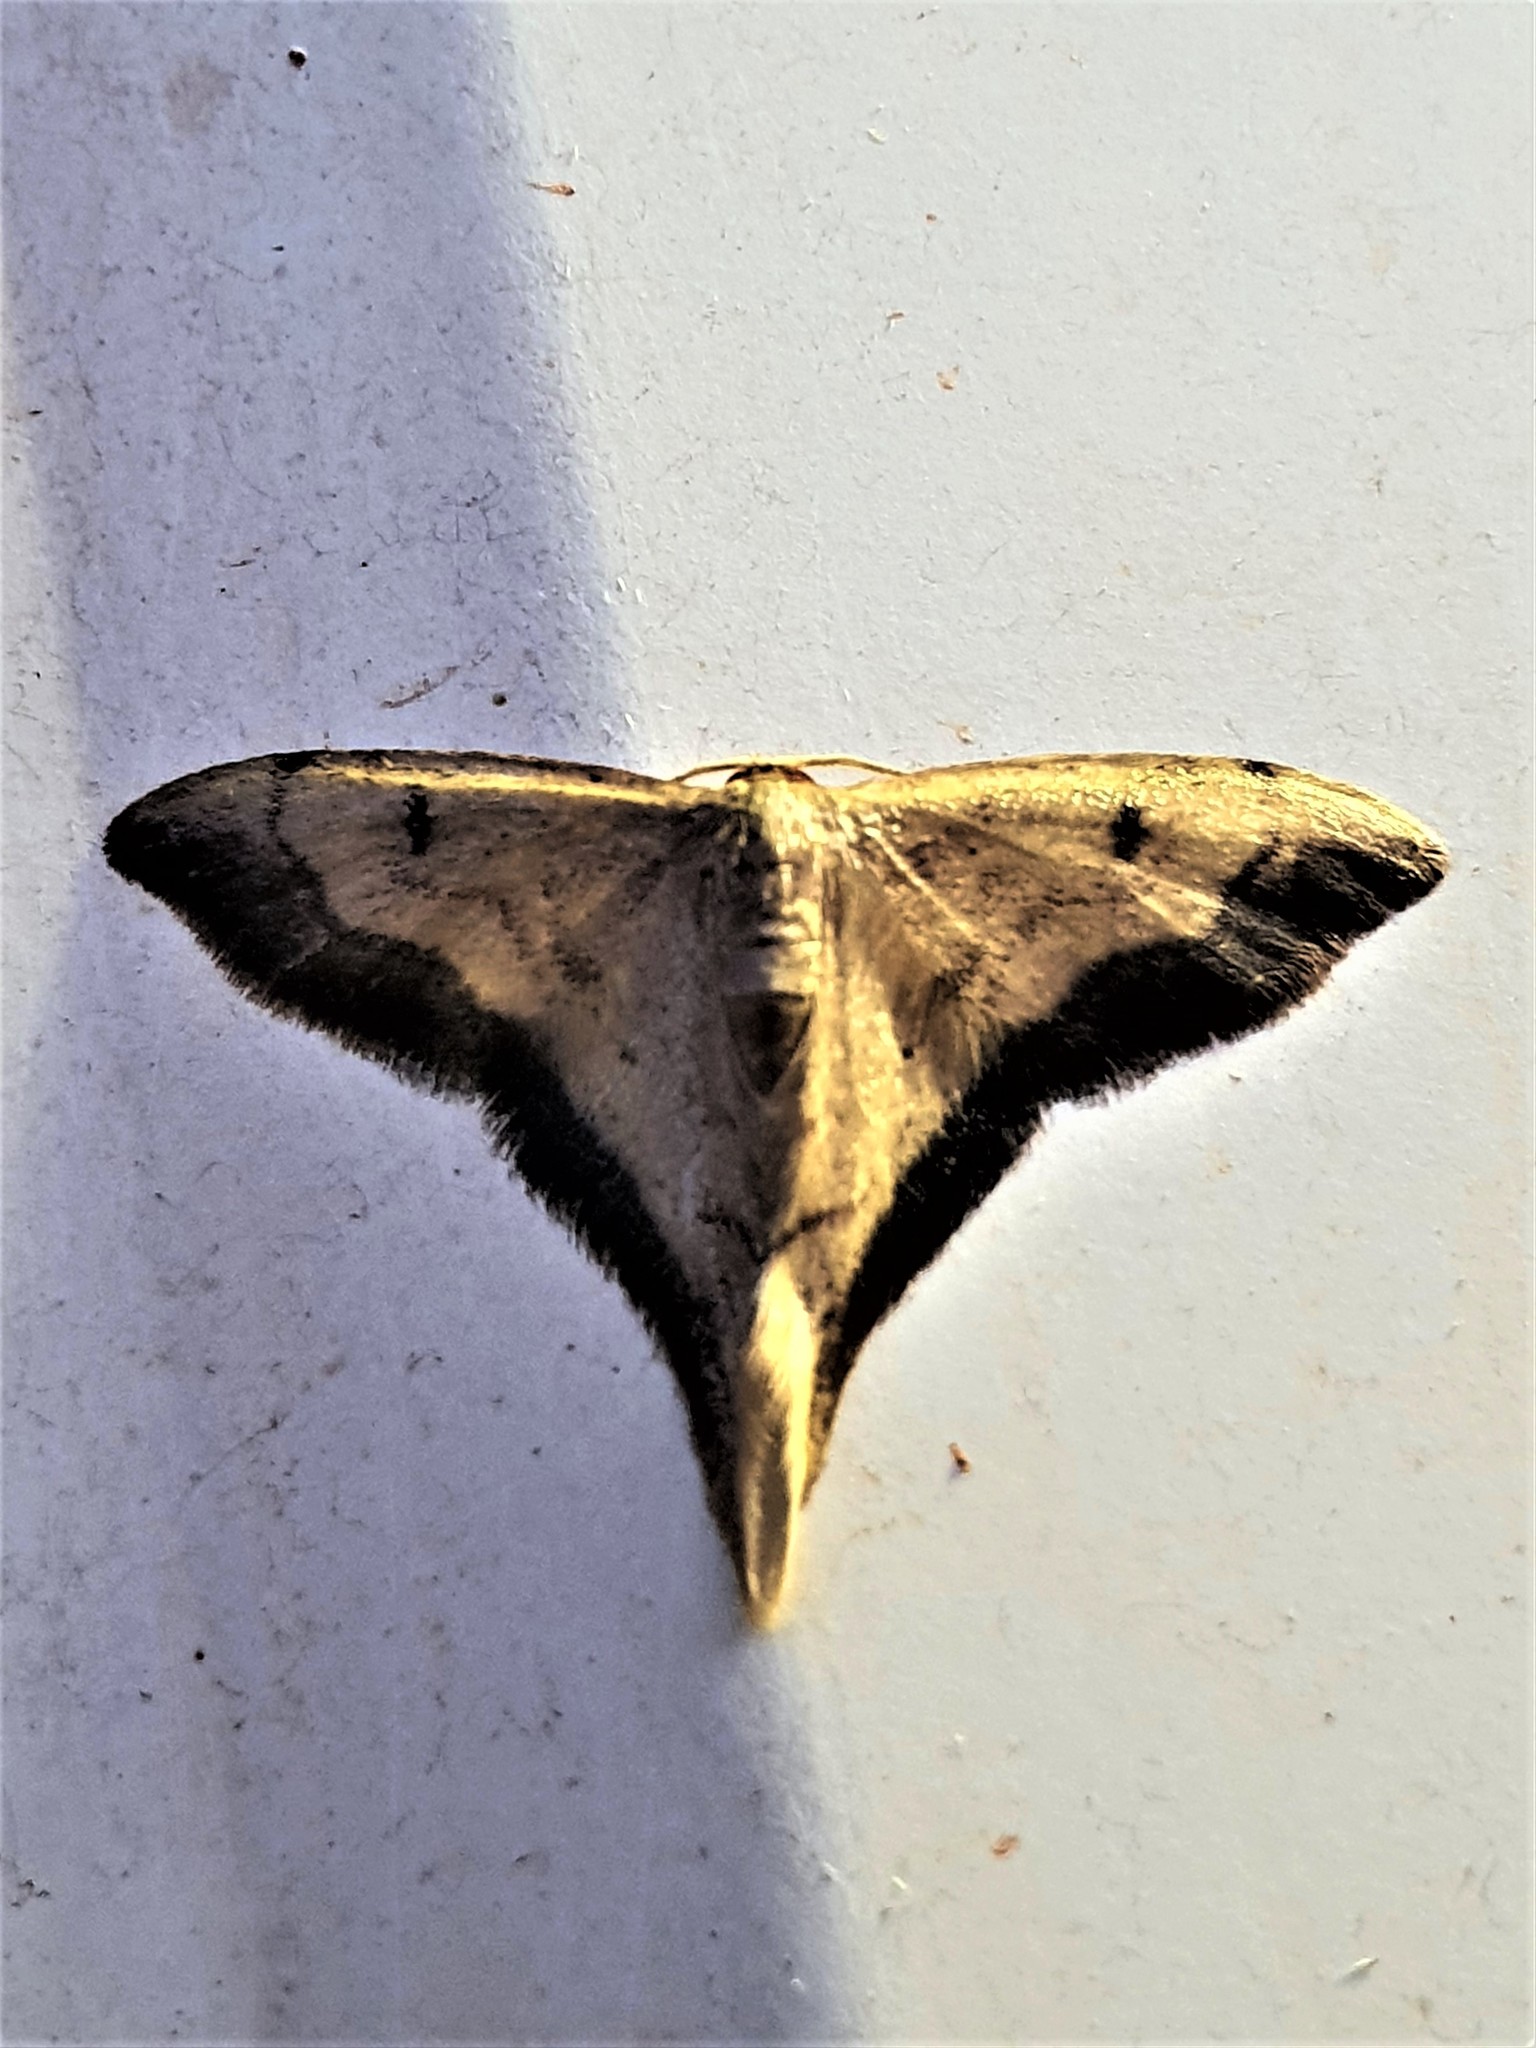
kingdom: Animalia
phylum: Arthropoda
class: Insecta
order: Lepidoptera
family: Geometridae
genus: Idaea
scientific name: Idaea speciosa
